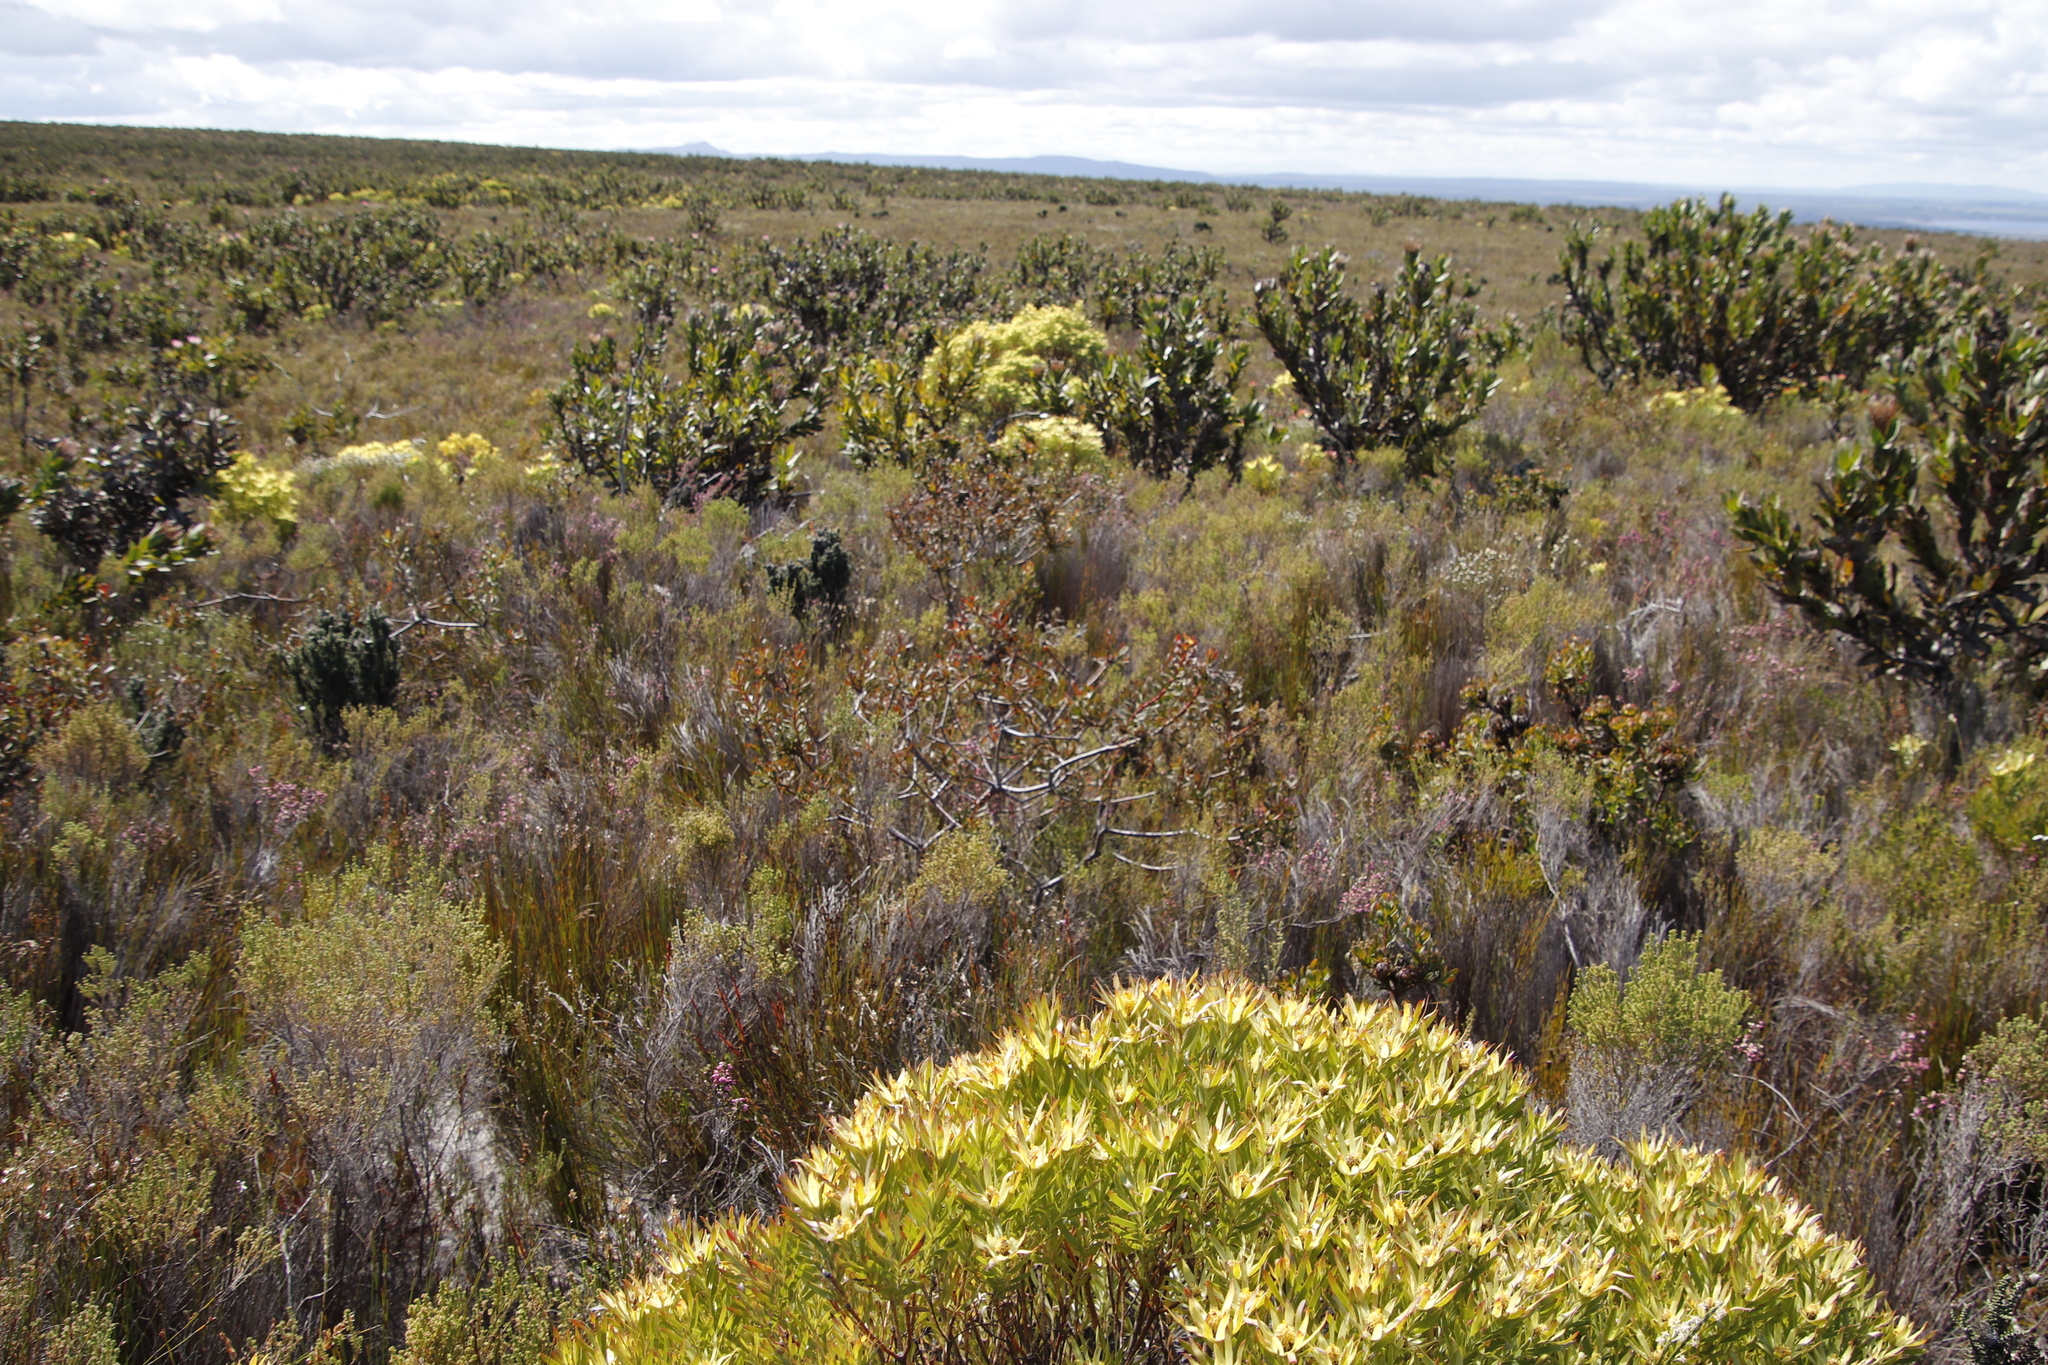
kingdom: Plantae
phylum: Tracheophyta
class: Magnoliopsida
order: Proteales
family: Proteaceae
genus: Aulax
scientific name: Aulax umbellata
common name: Broad-leaf featherbush
